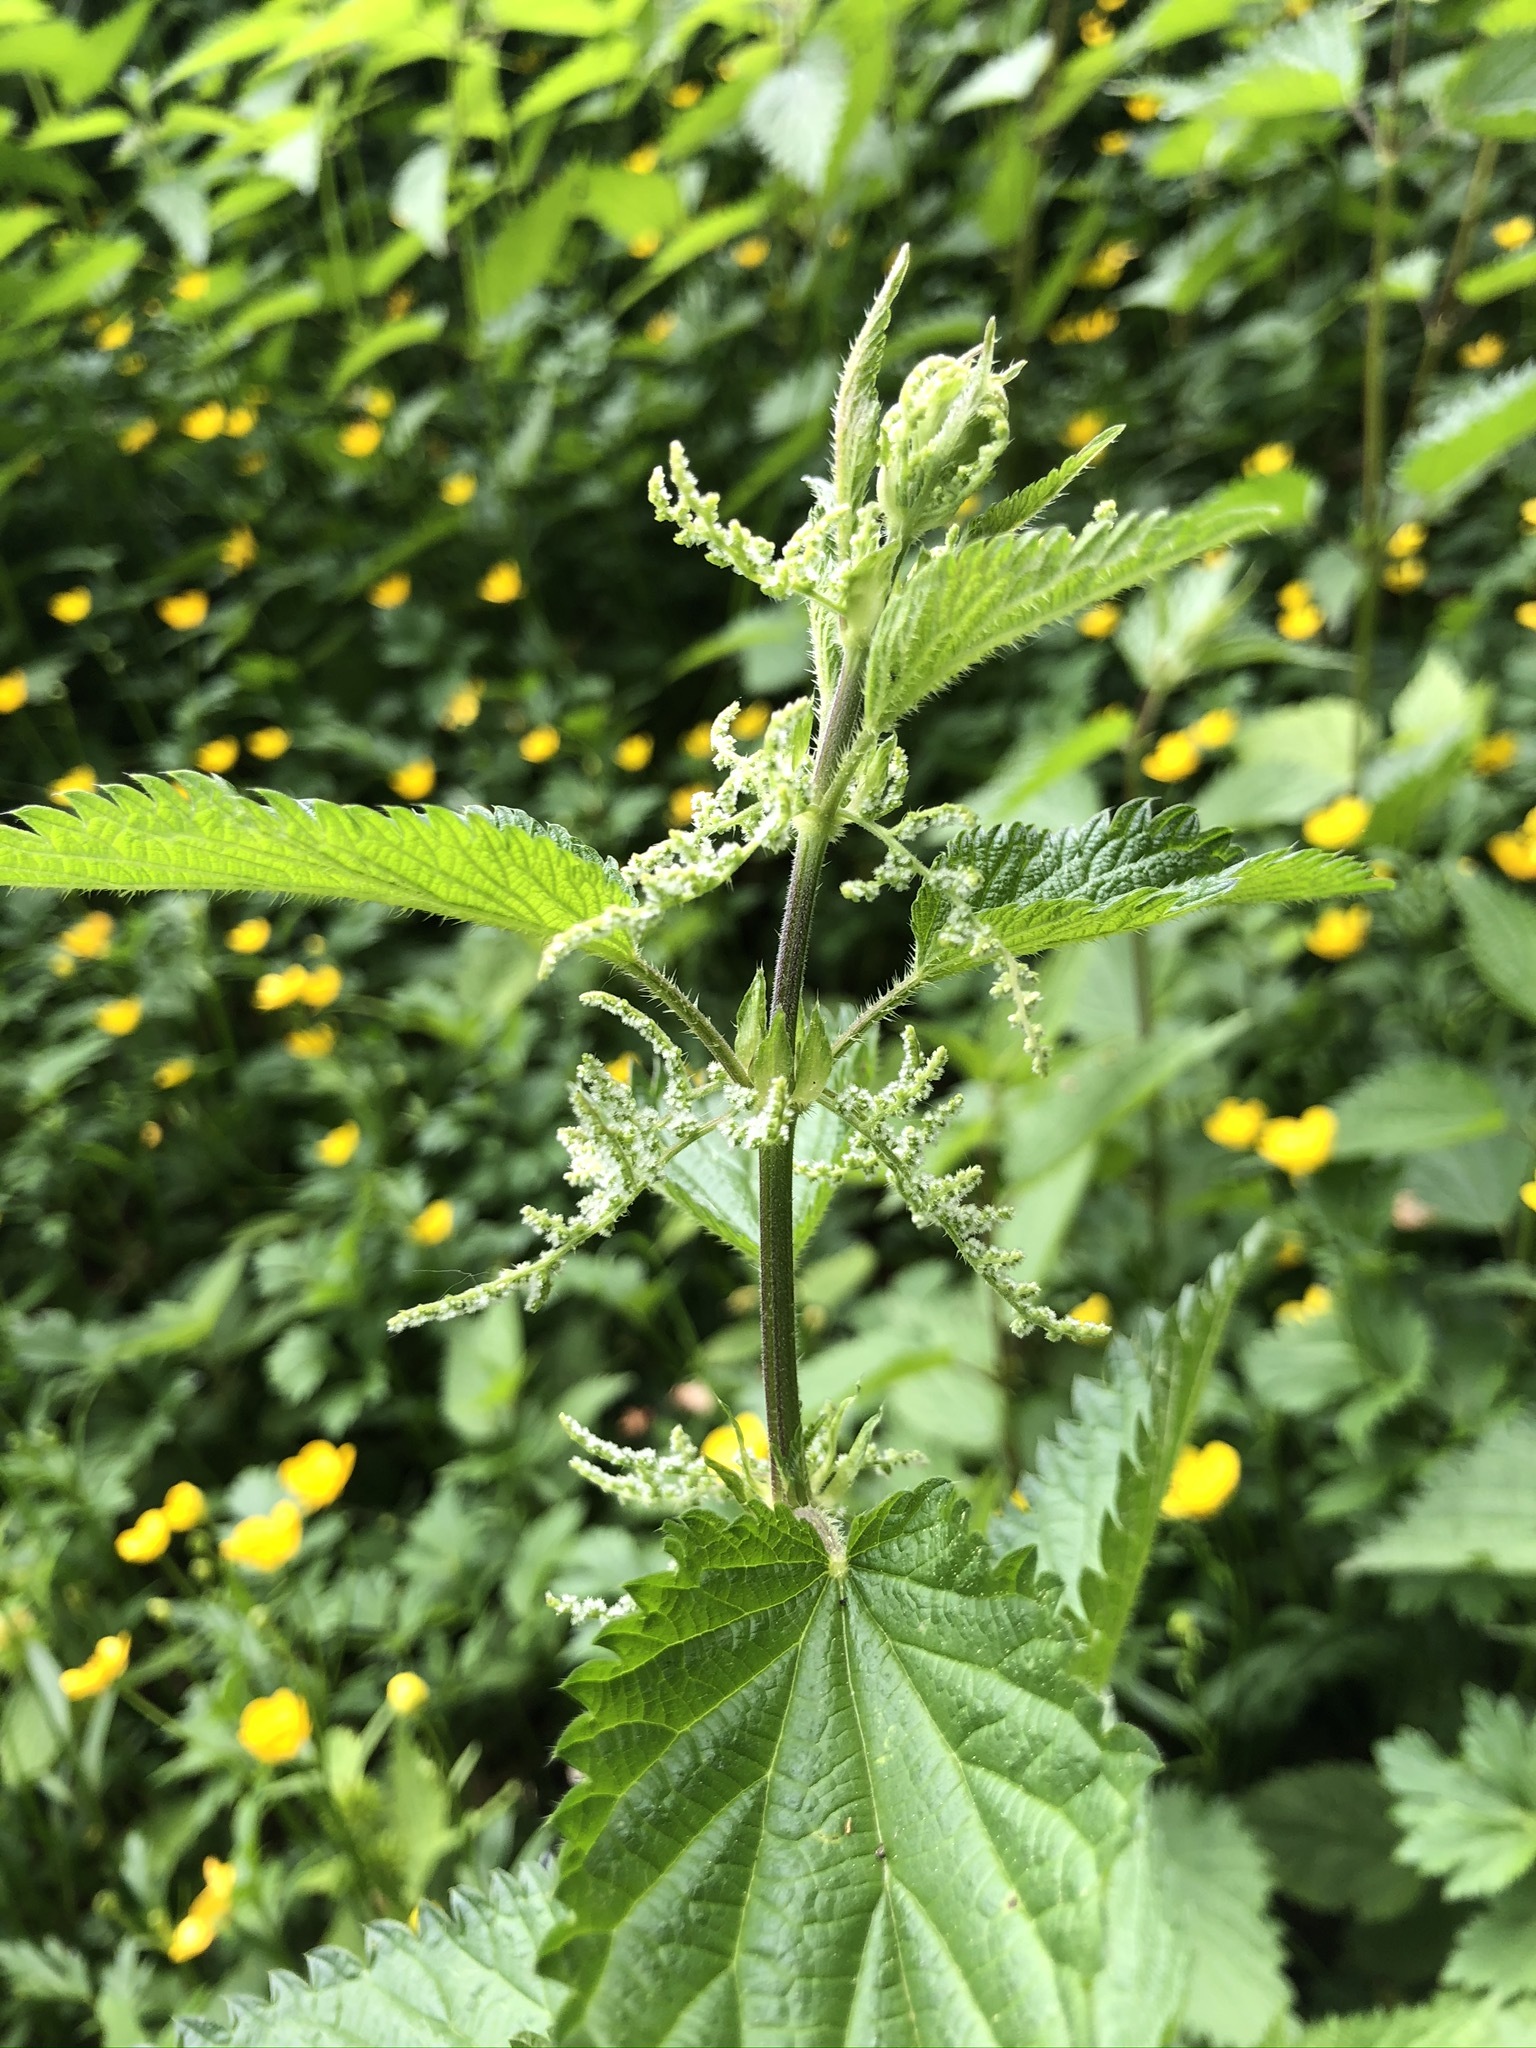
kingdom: Plantae
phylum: Tracheophyta
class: Magnoliopsida
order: Rosales
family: Urticaceae
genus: Urtica
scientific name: Urtica dioica
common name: Common nettle
